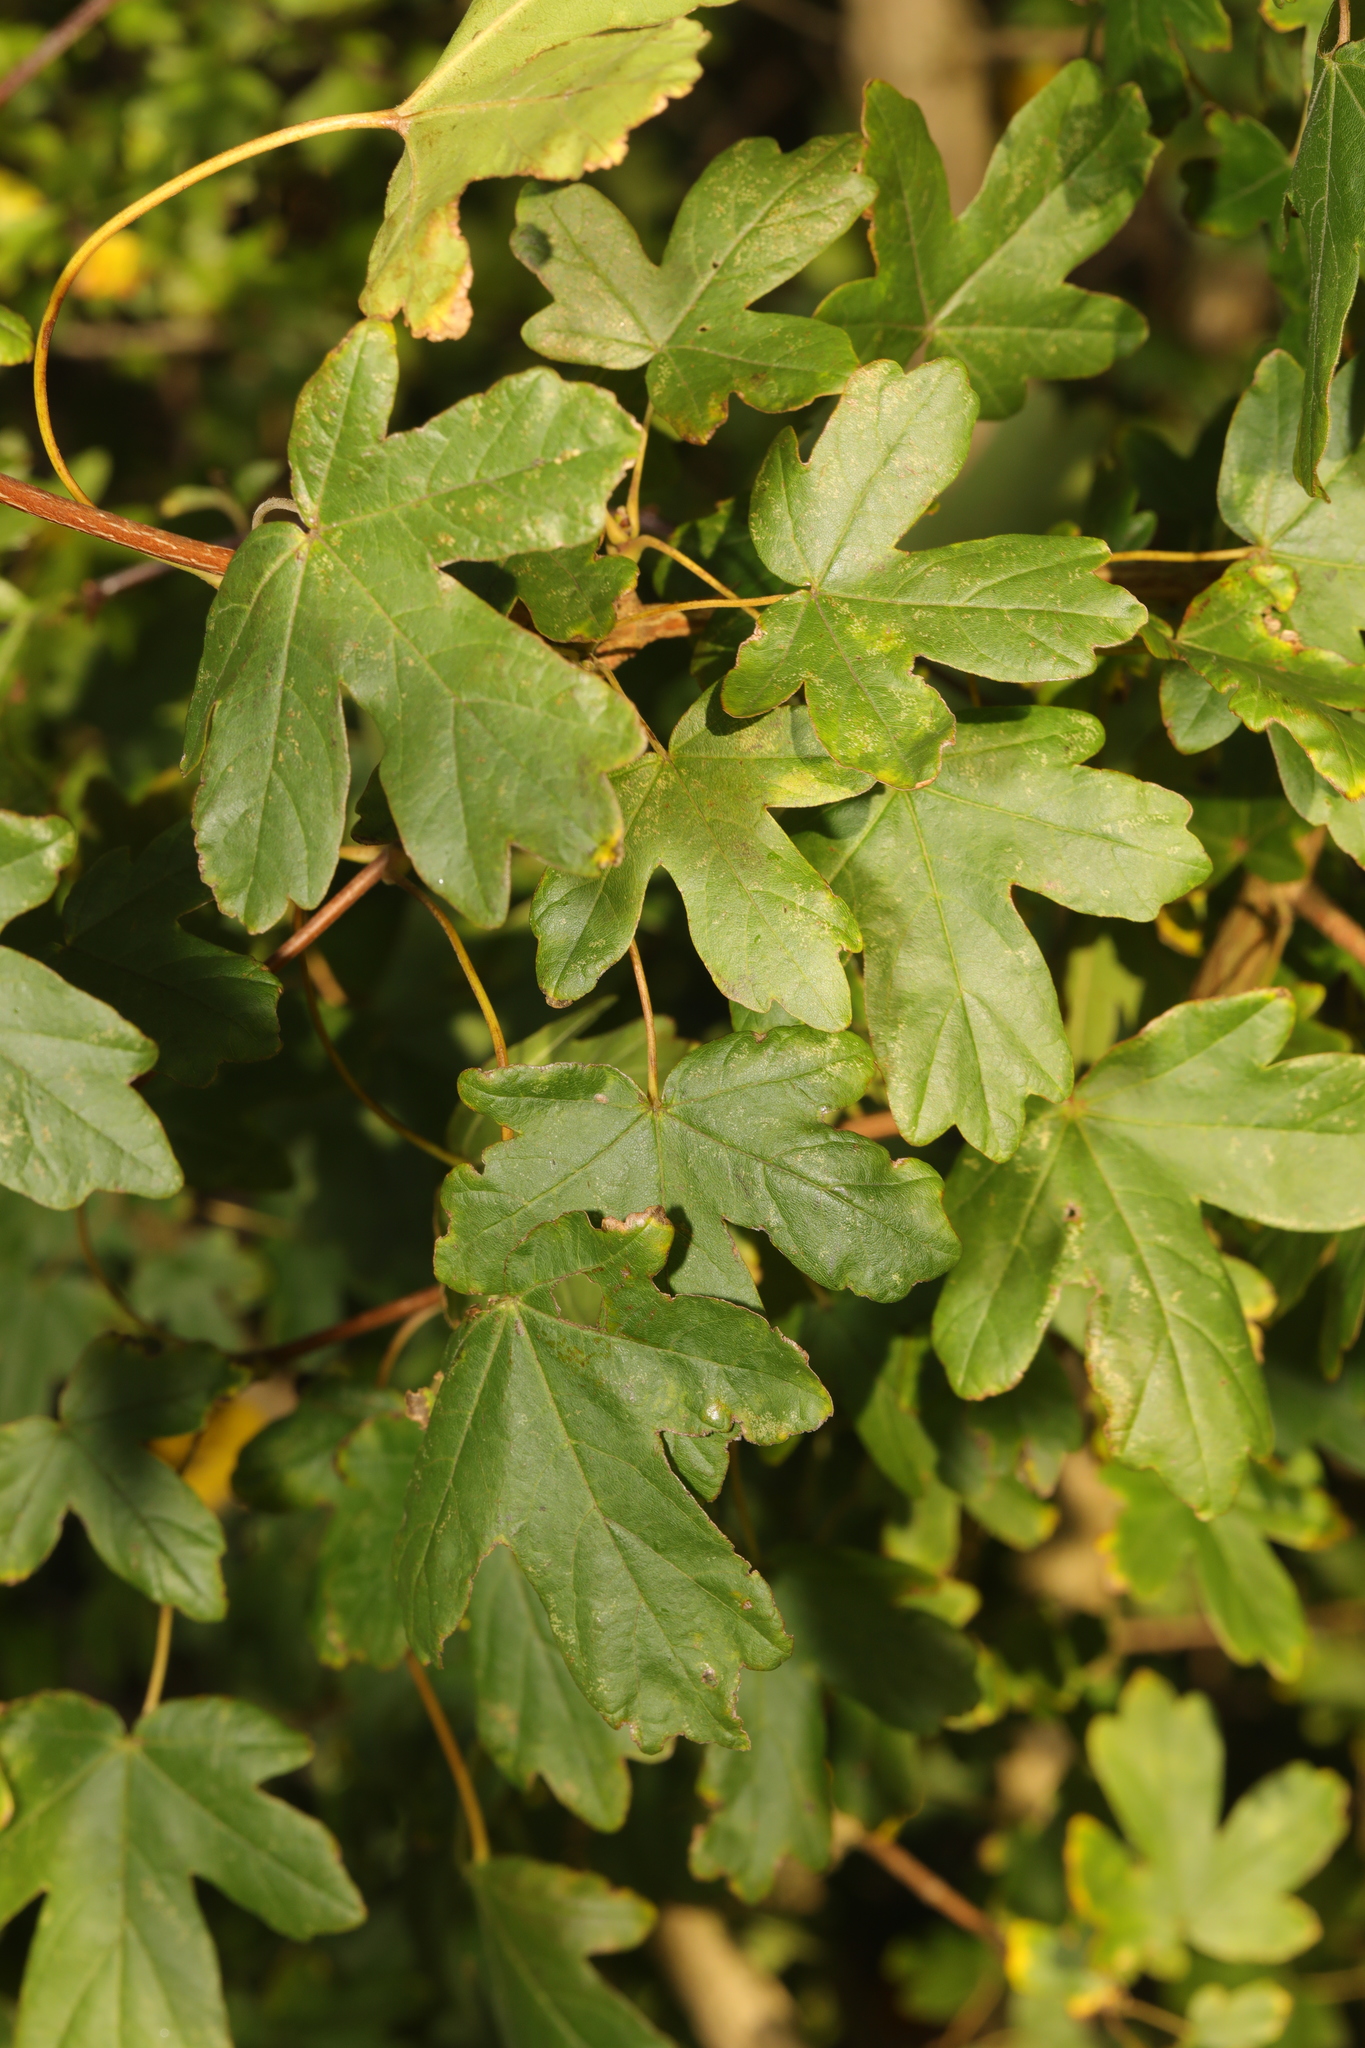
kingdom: Plantae
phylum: Tracheophyta
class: Magnoliopsida
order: Sapindales
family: Sapindaceae
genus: Acer
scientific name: Acer campestre
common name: Field maple
